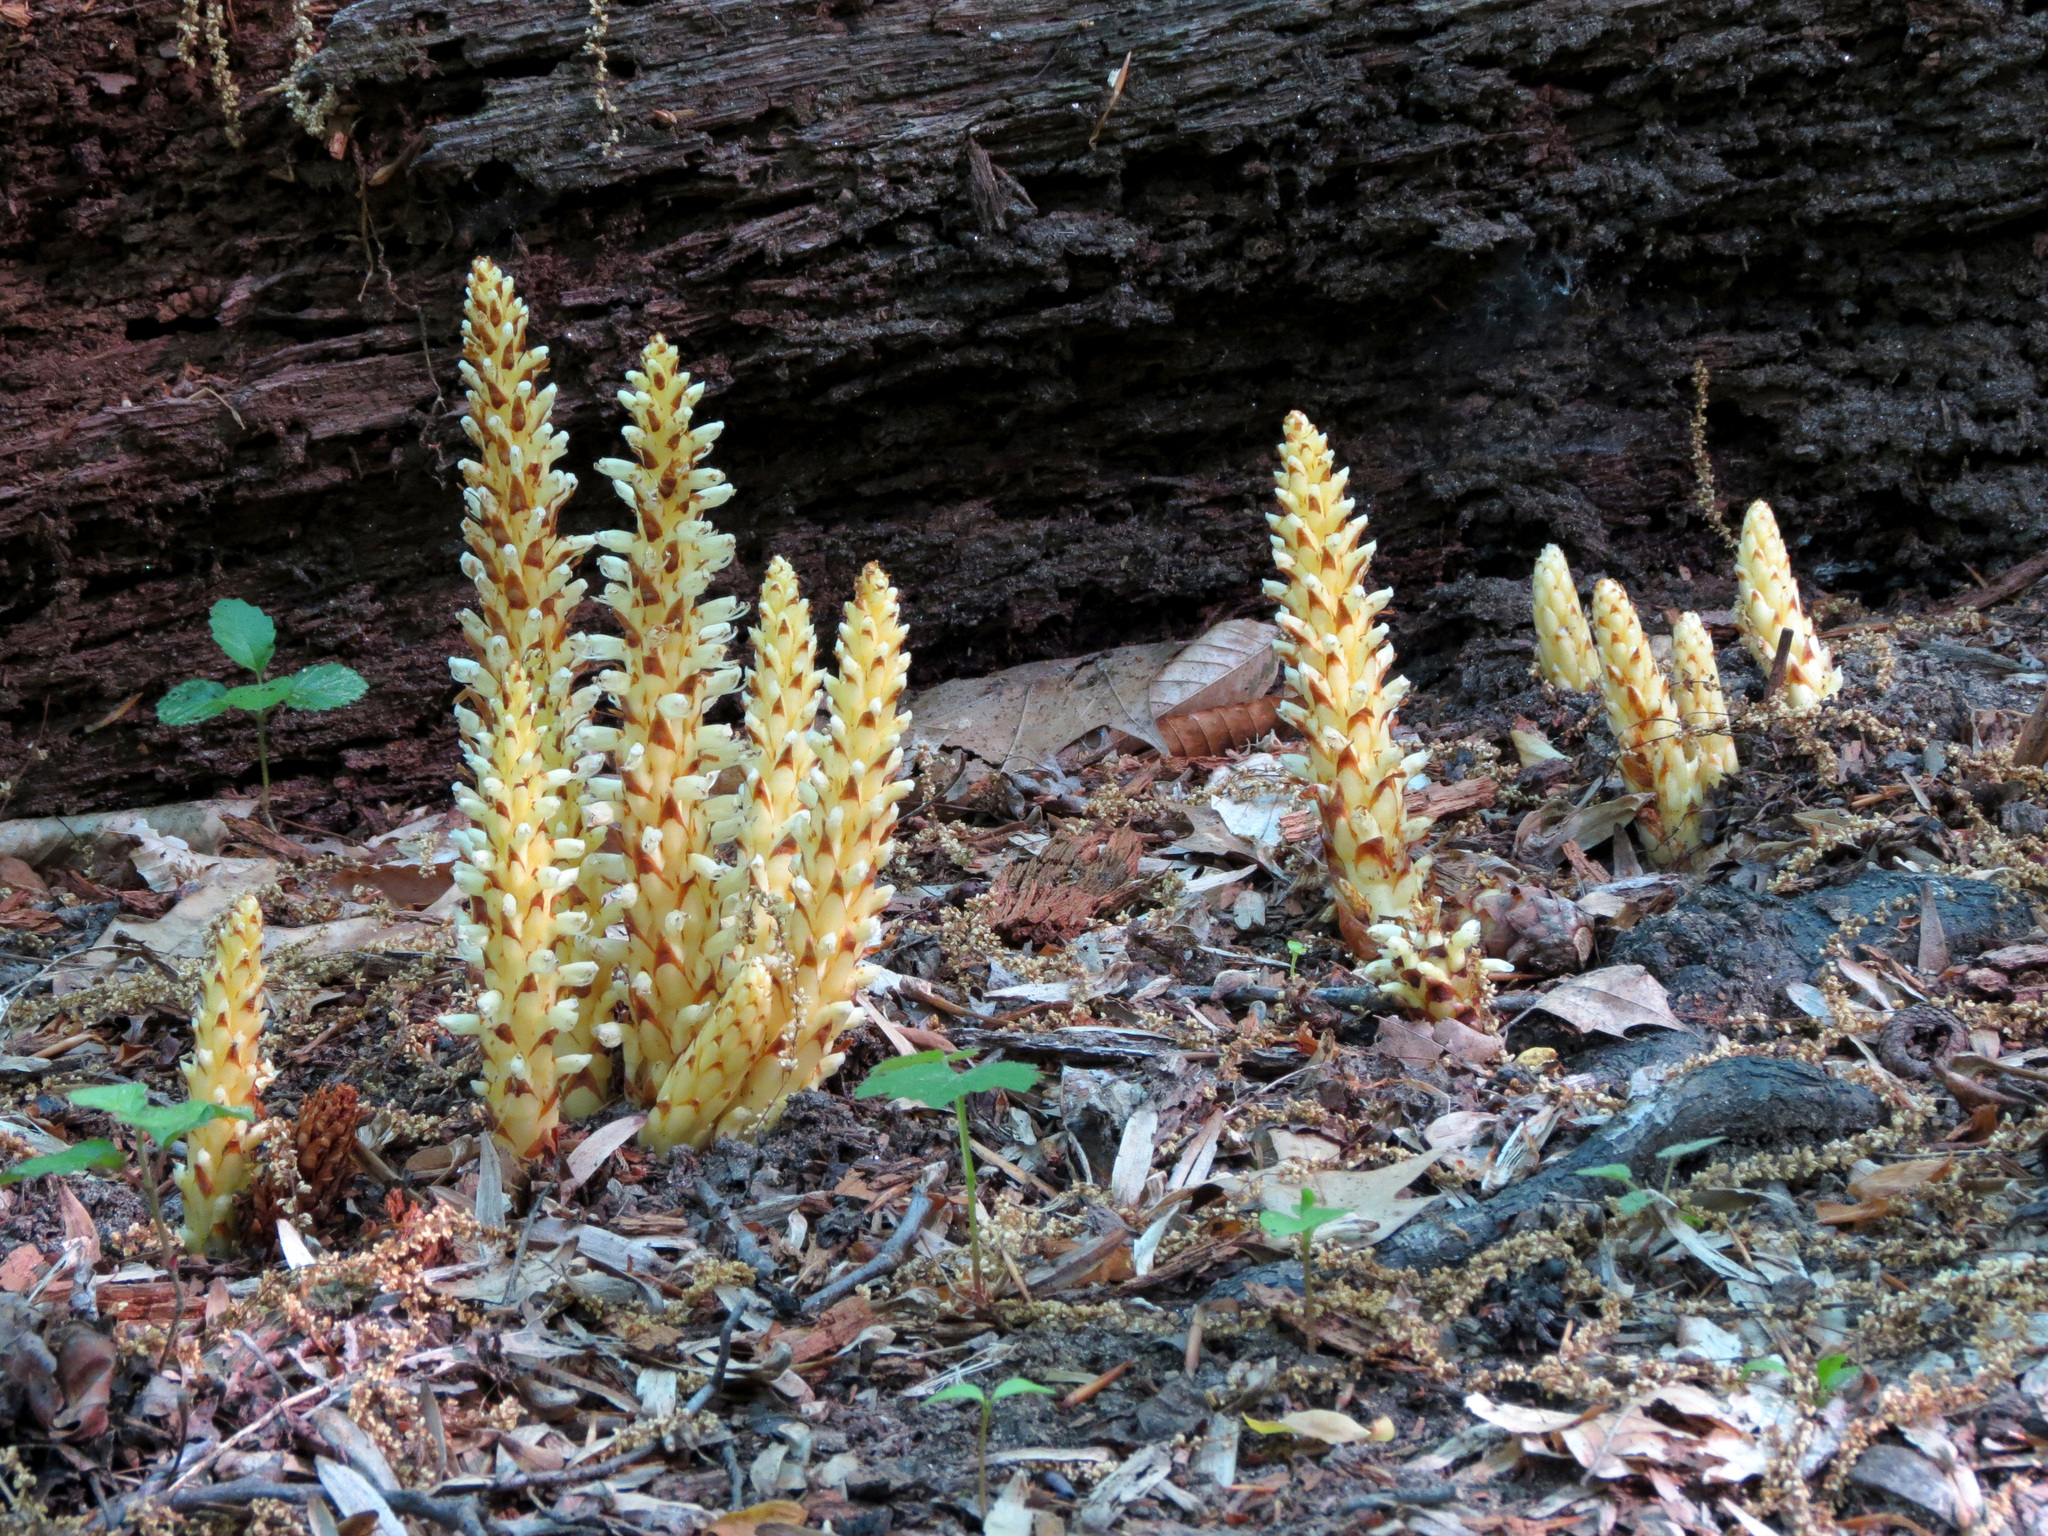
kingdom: Plantae
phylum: Tracheophyta
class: Magnoliopsida
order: Lamiales
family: Orobanchaceae
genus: Conopholis
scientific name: Conopholis americana
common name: American cancer-root
